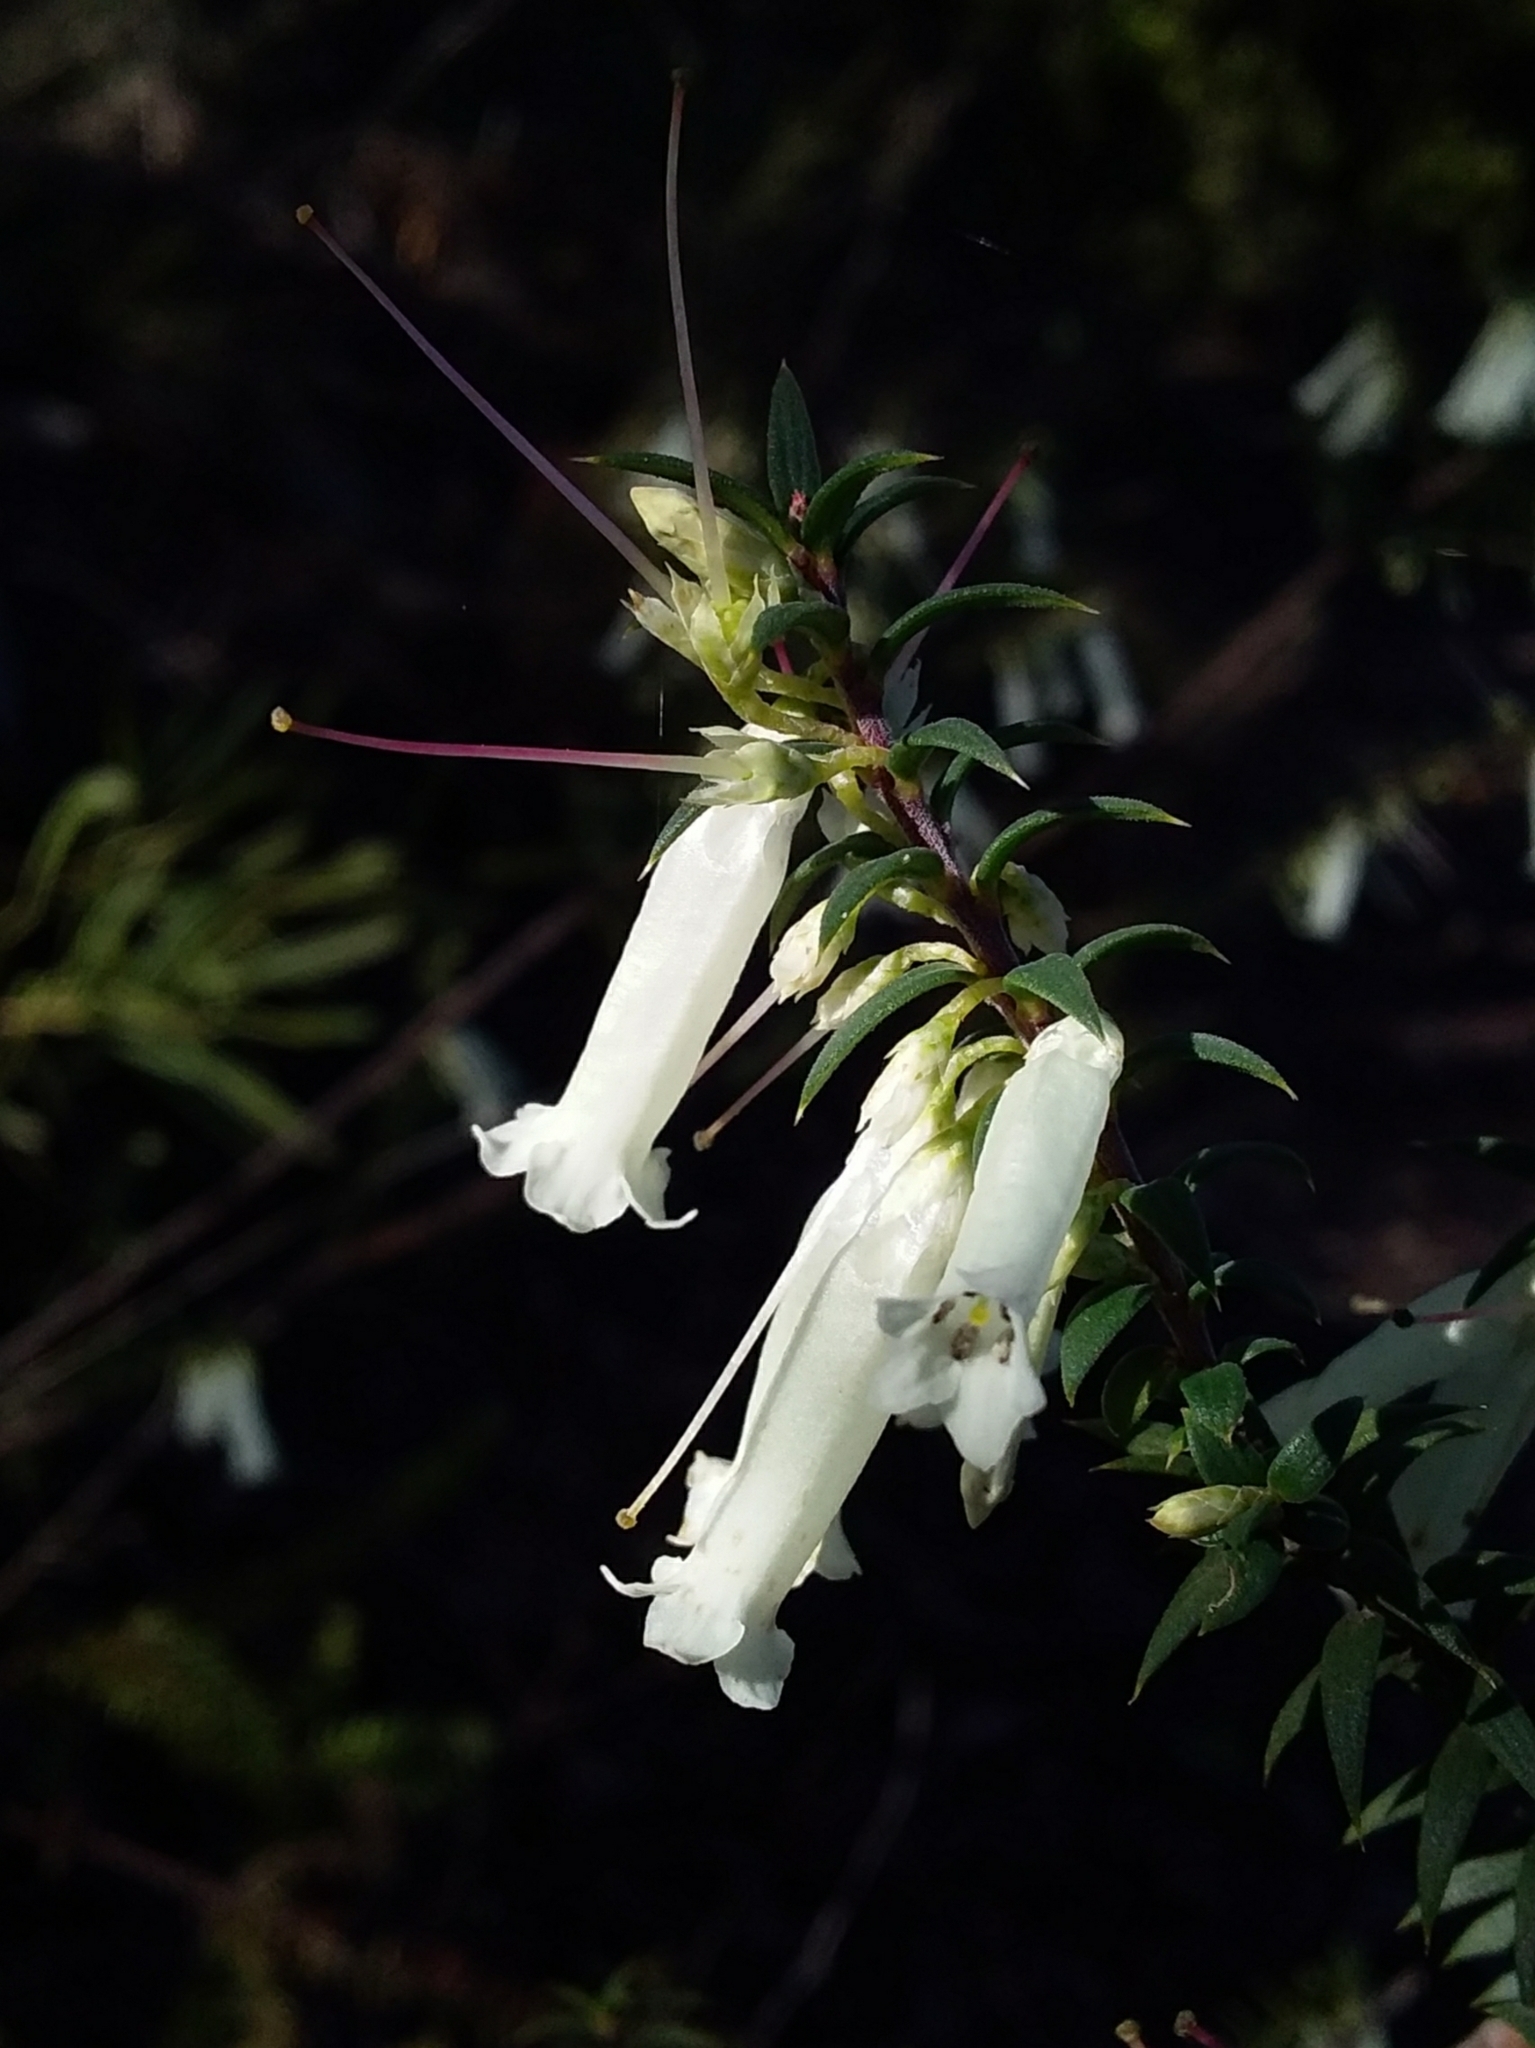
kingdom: Plantae
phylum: Tracheophyta
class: Magnoliopsida
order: Ericales
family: Ericaceae
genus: Epacris
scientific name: Epacris impressa
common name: Common-heath
